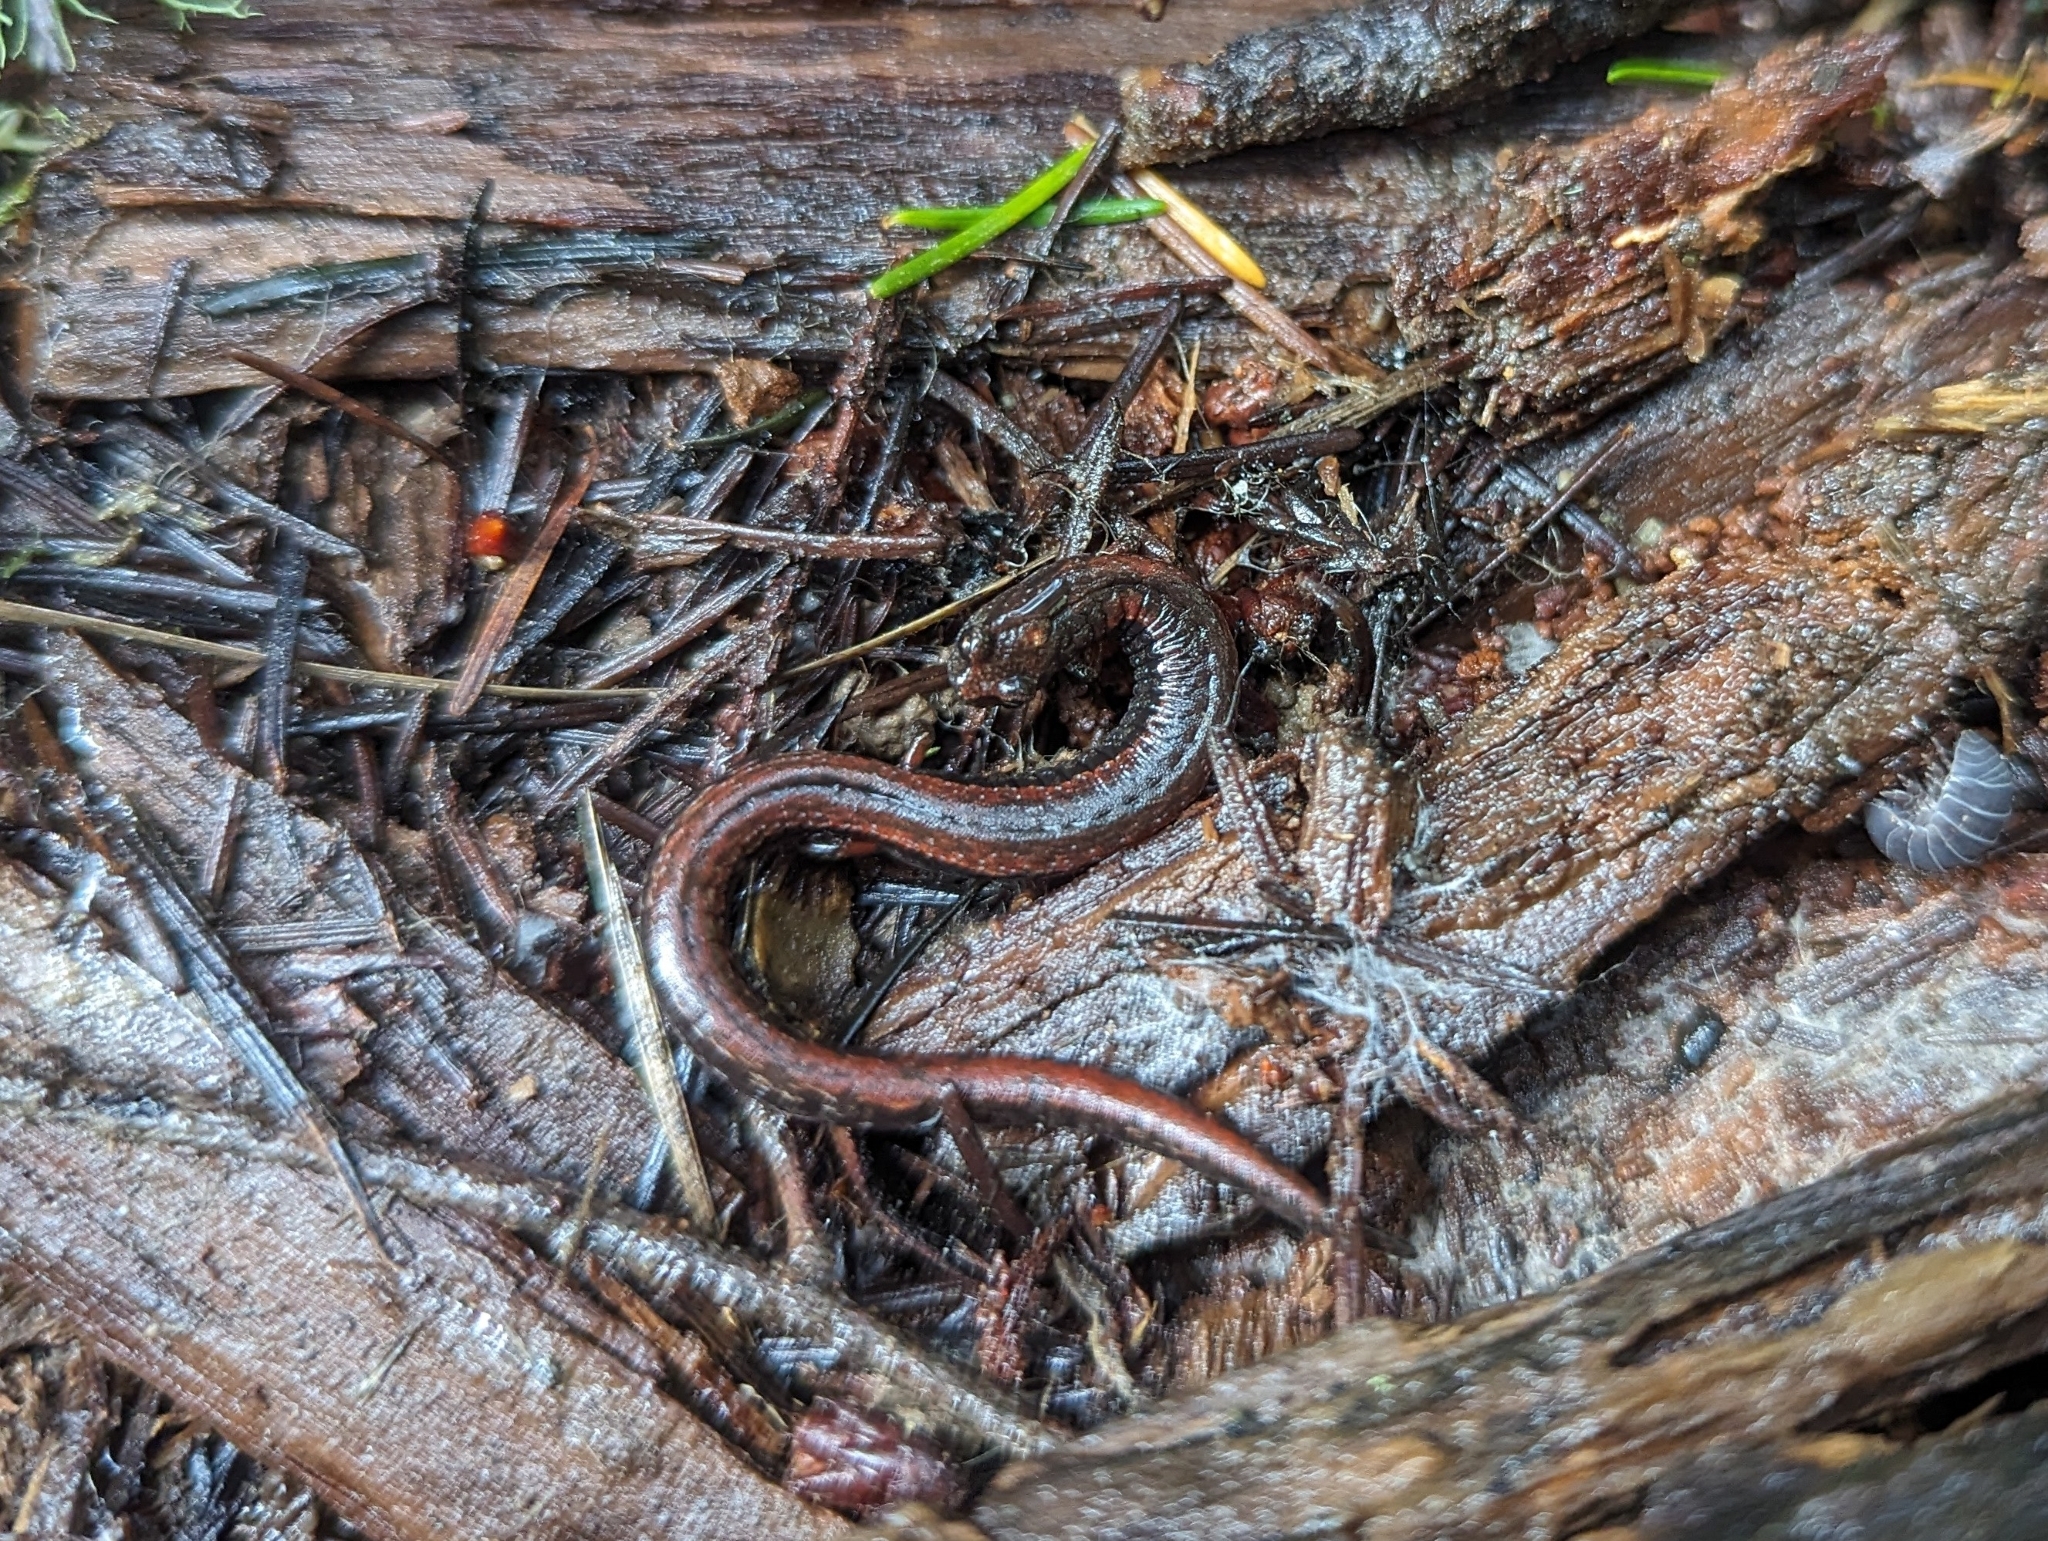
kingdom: Animalia
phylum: Chordata
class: Amphibia
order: Caudata
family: Plethodontidae
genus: Batrachoseps
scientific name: Batrachoseps attenuatus
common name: California slender salamander
